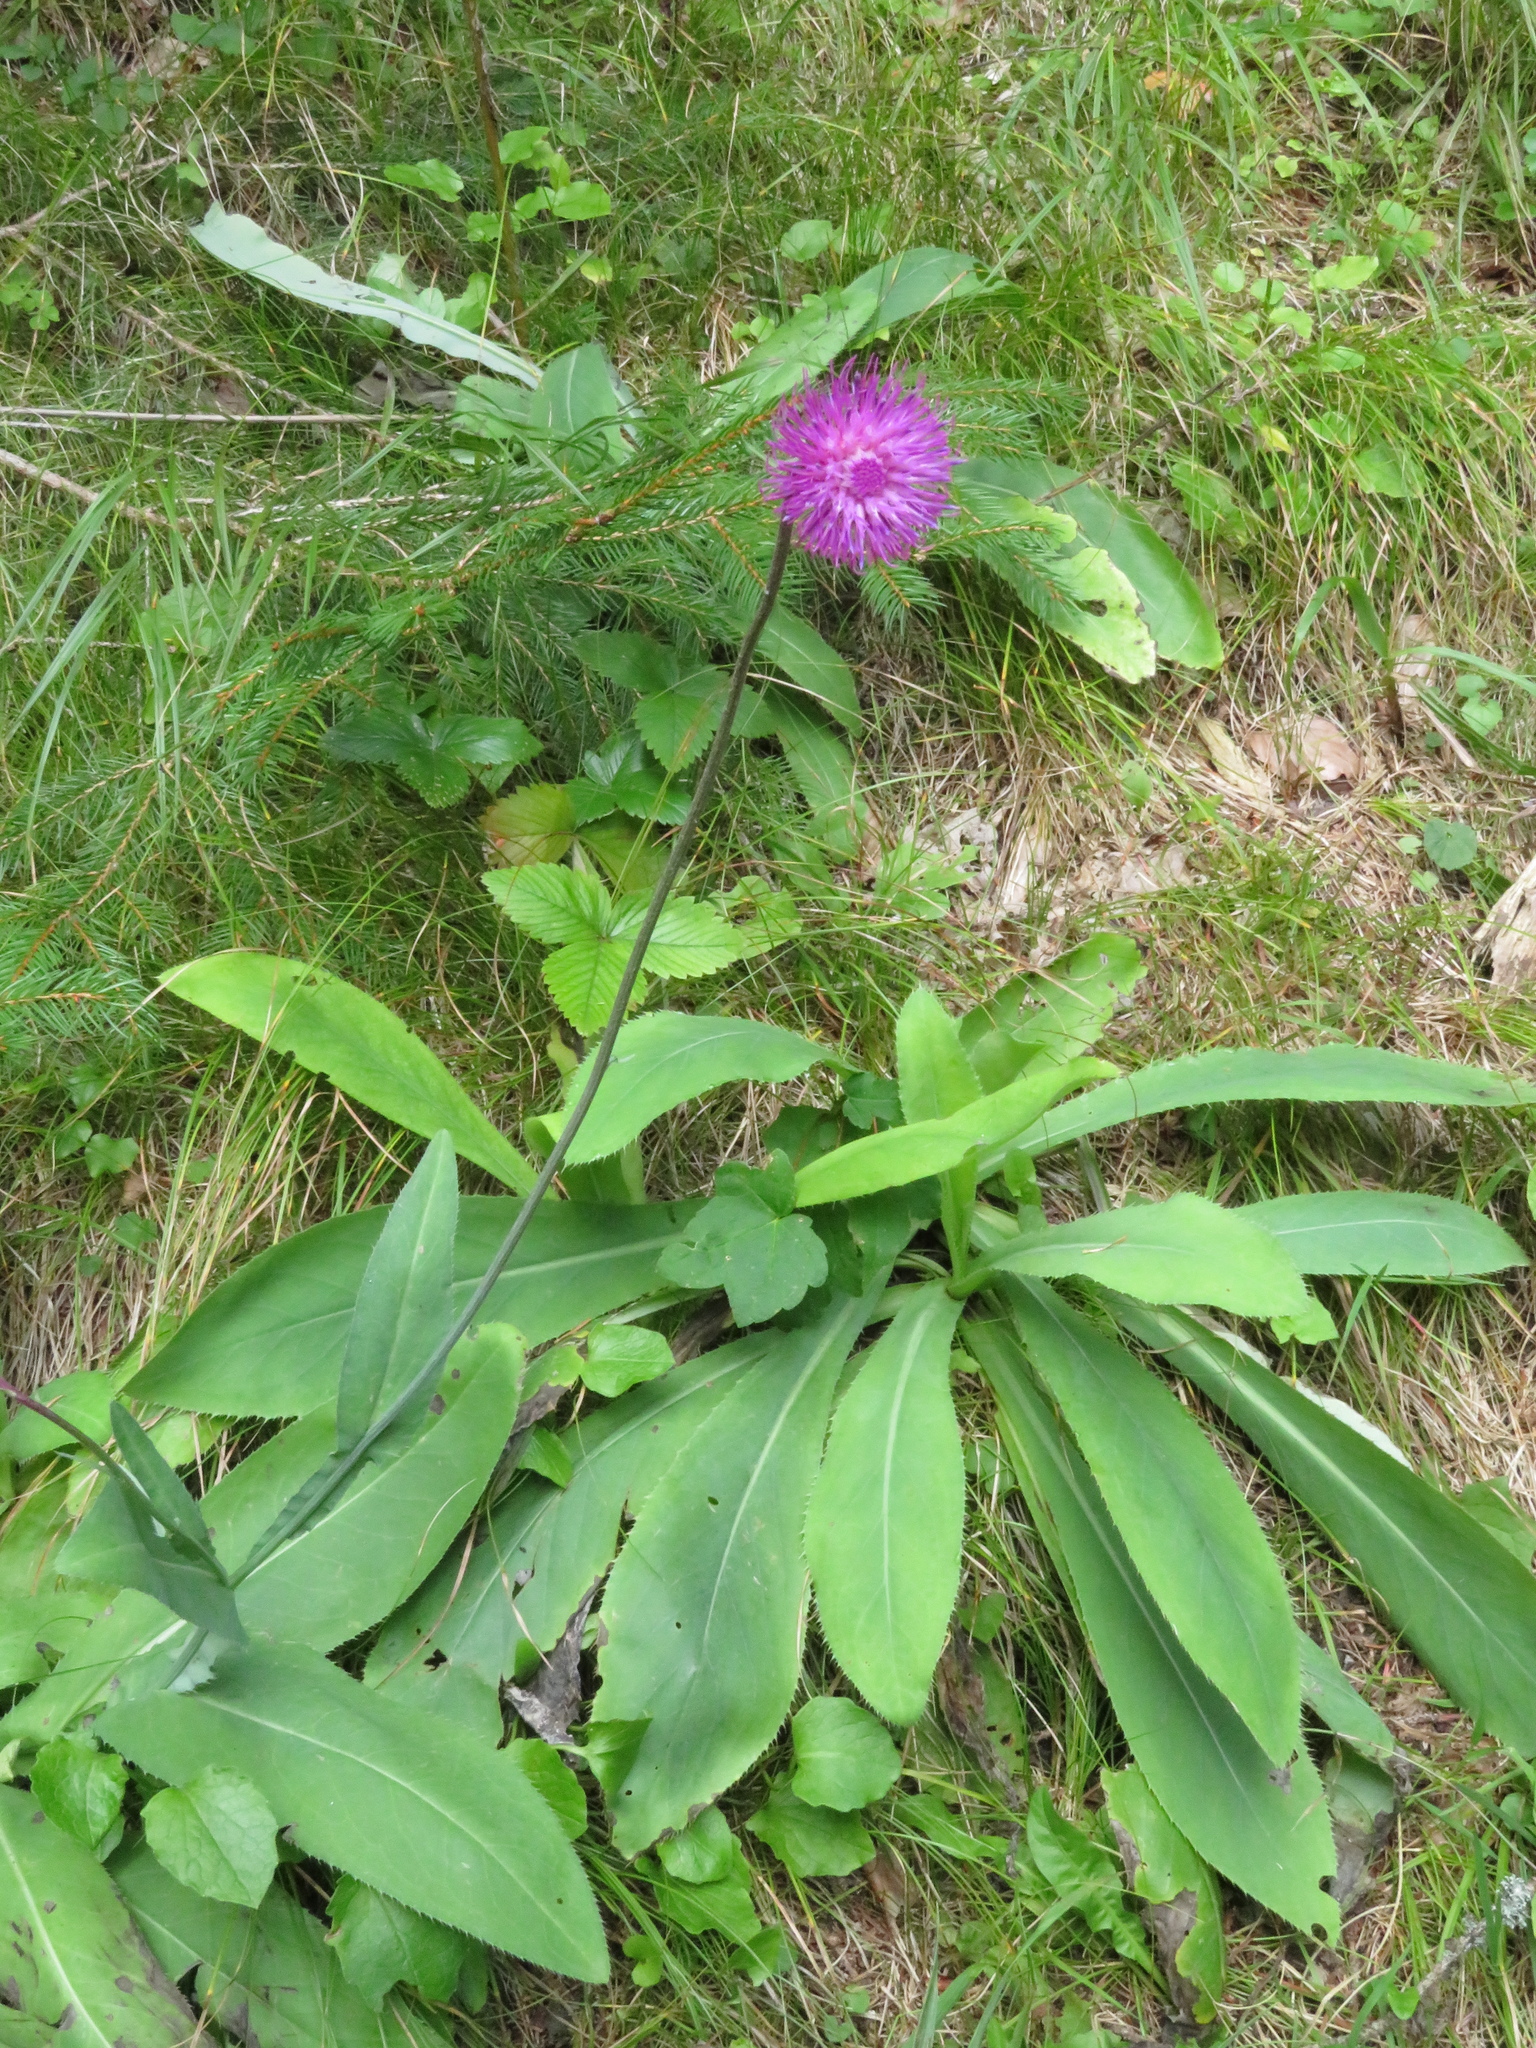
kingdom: Plantae
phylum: Tracheophyta
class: Magnoliopsida
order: Asterales
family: Asteraceae
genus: Carduus
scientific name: Carduus defloratus
